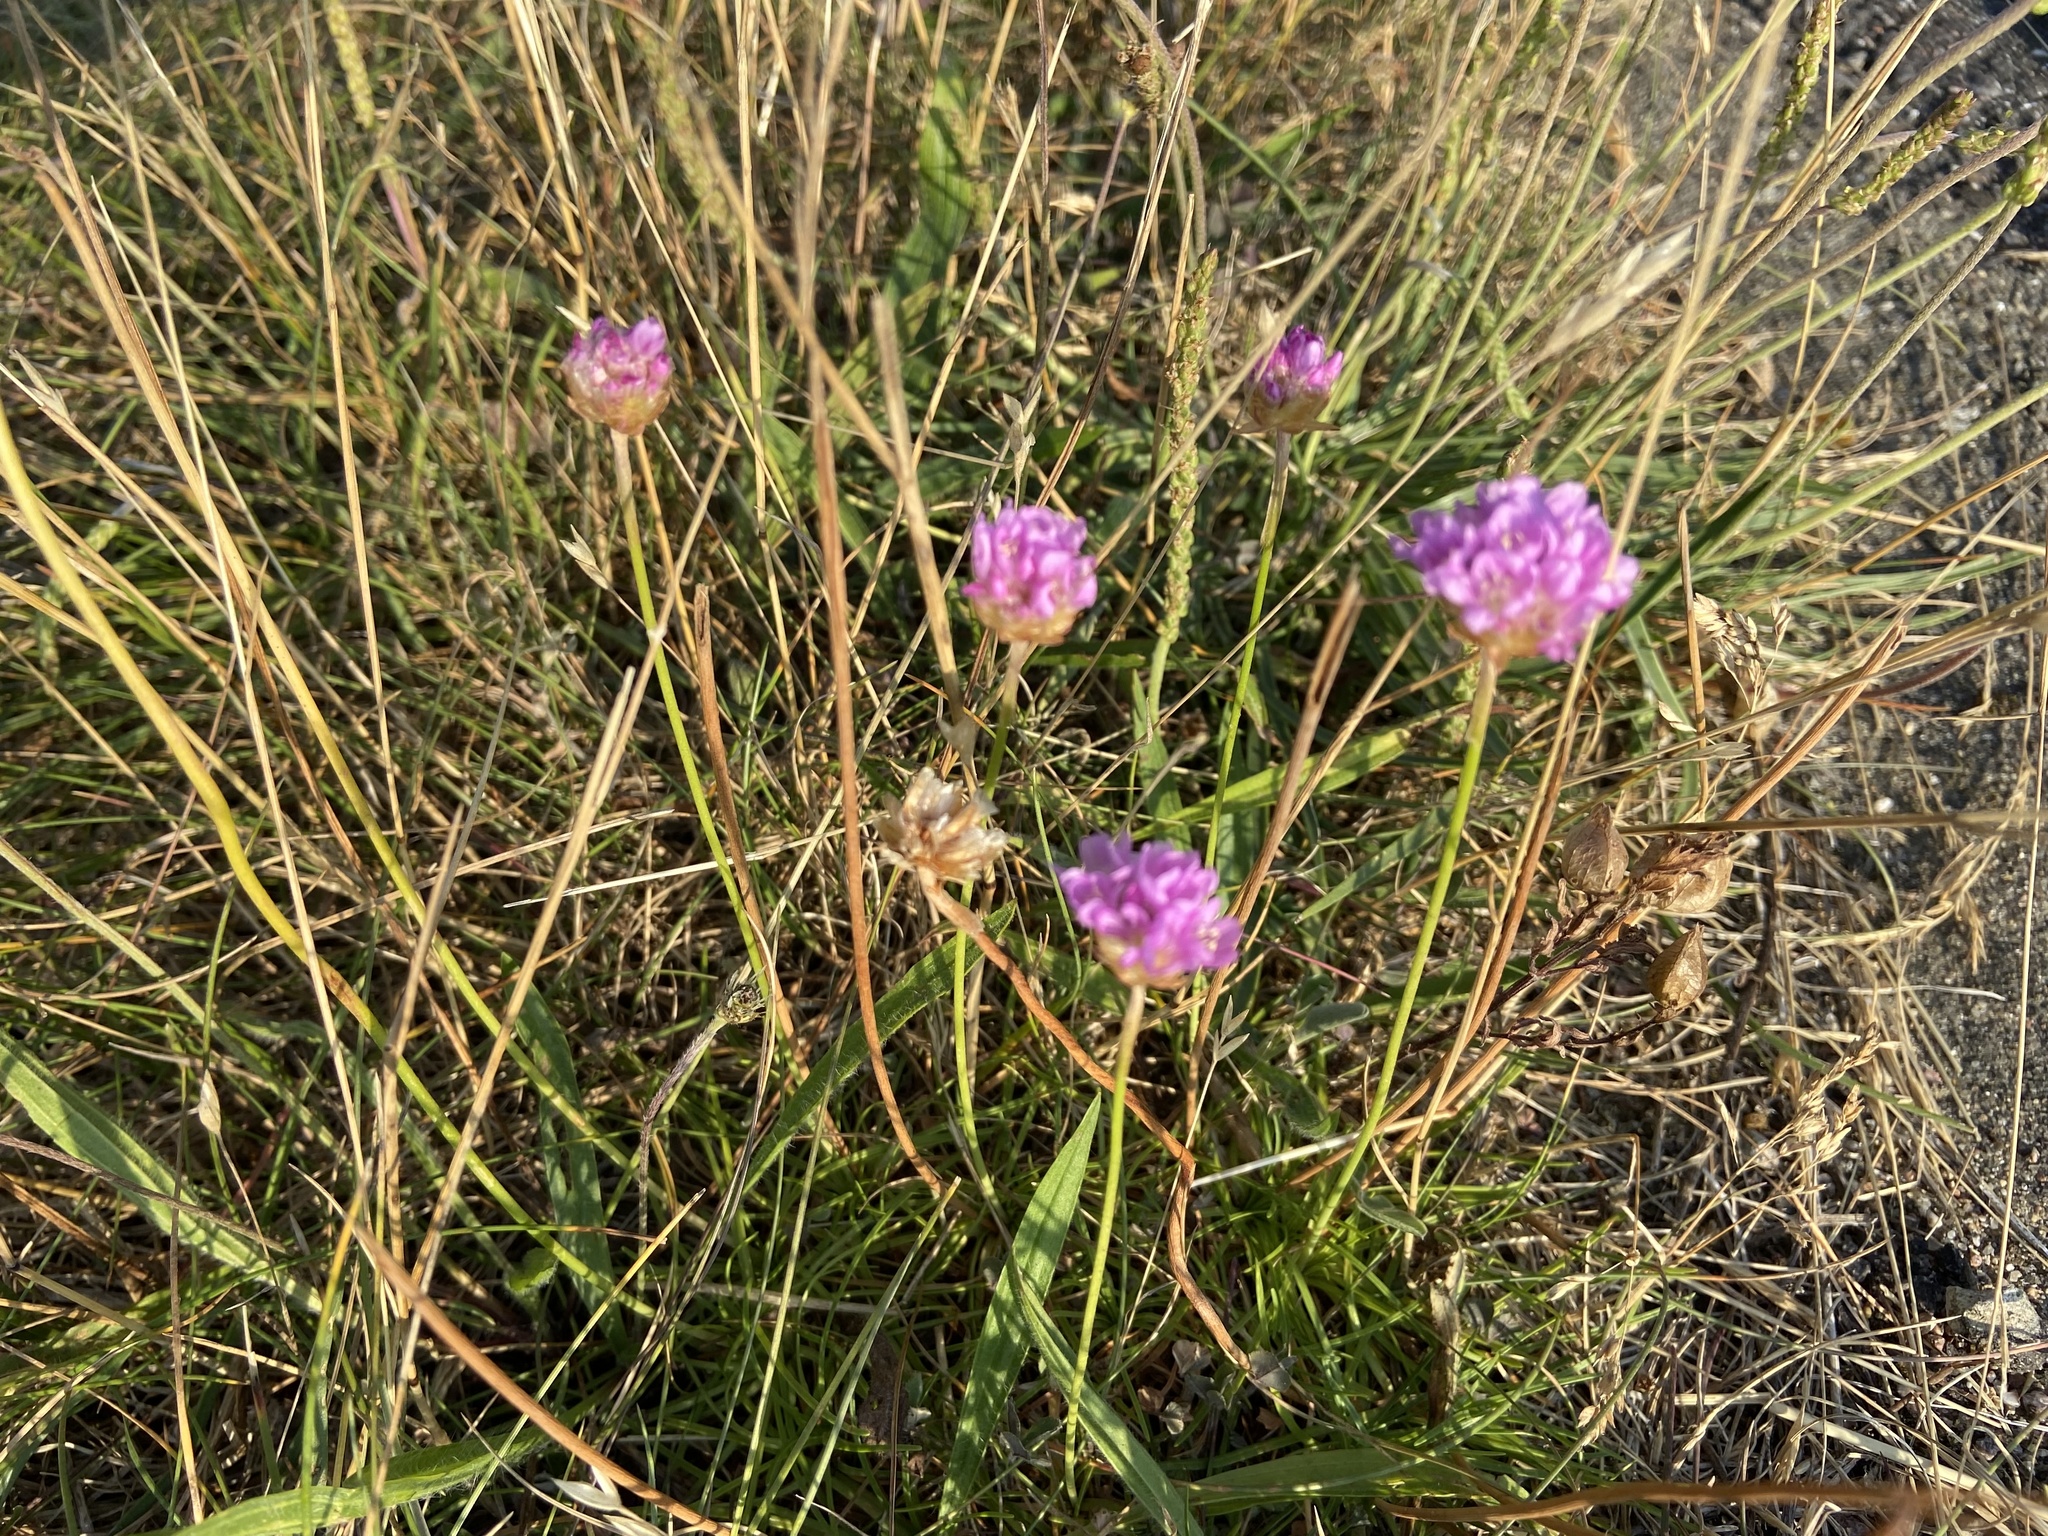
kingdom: Plantae
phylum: Tracheophyta
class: Magnoliopsida
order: Caryophyllales
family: Plumbaginaceae
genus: Armeria
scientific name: Armeria maritima
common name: Thrift
